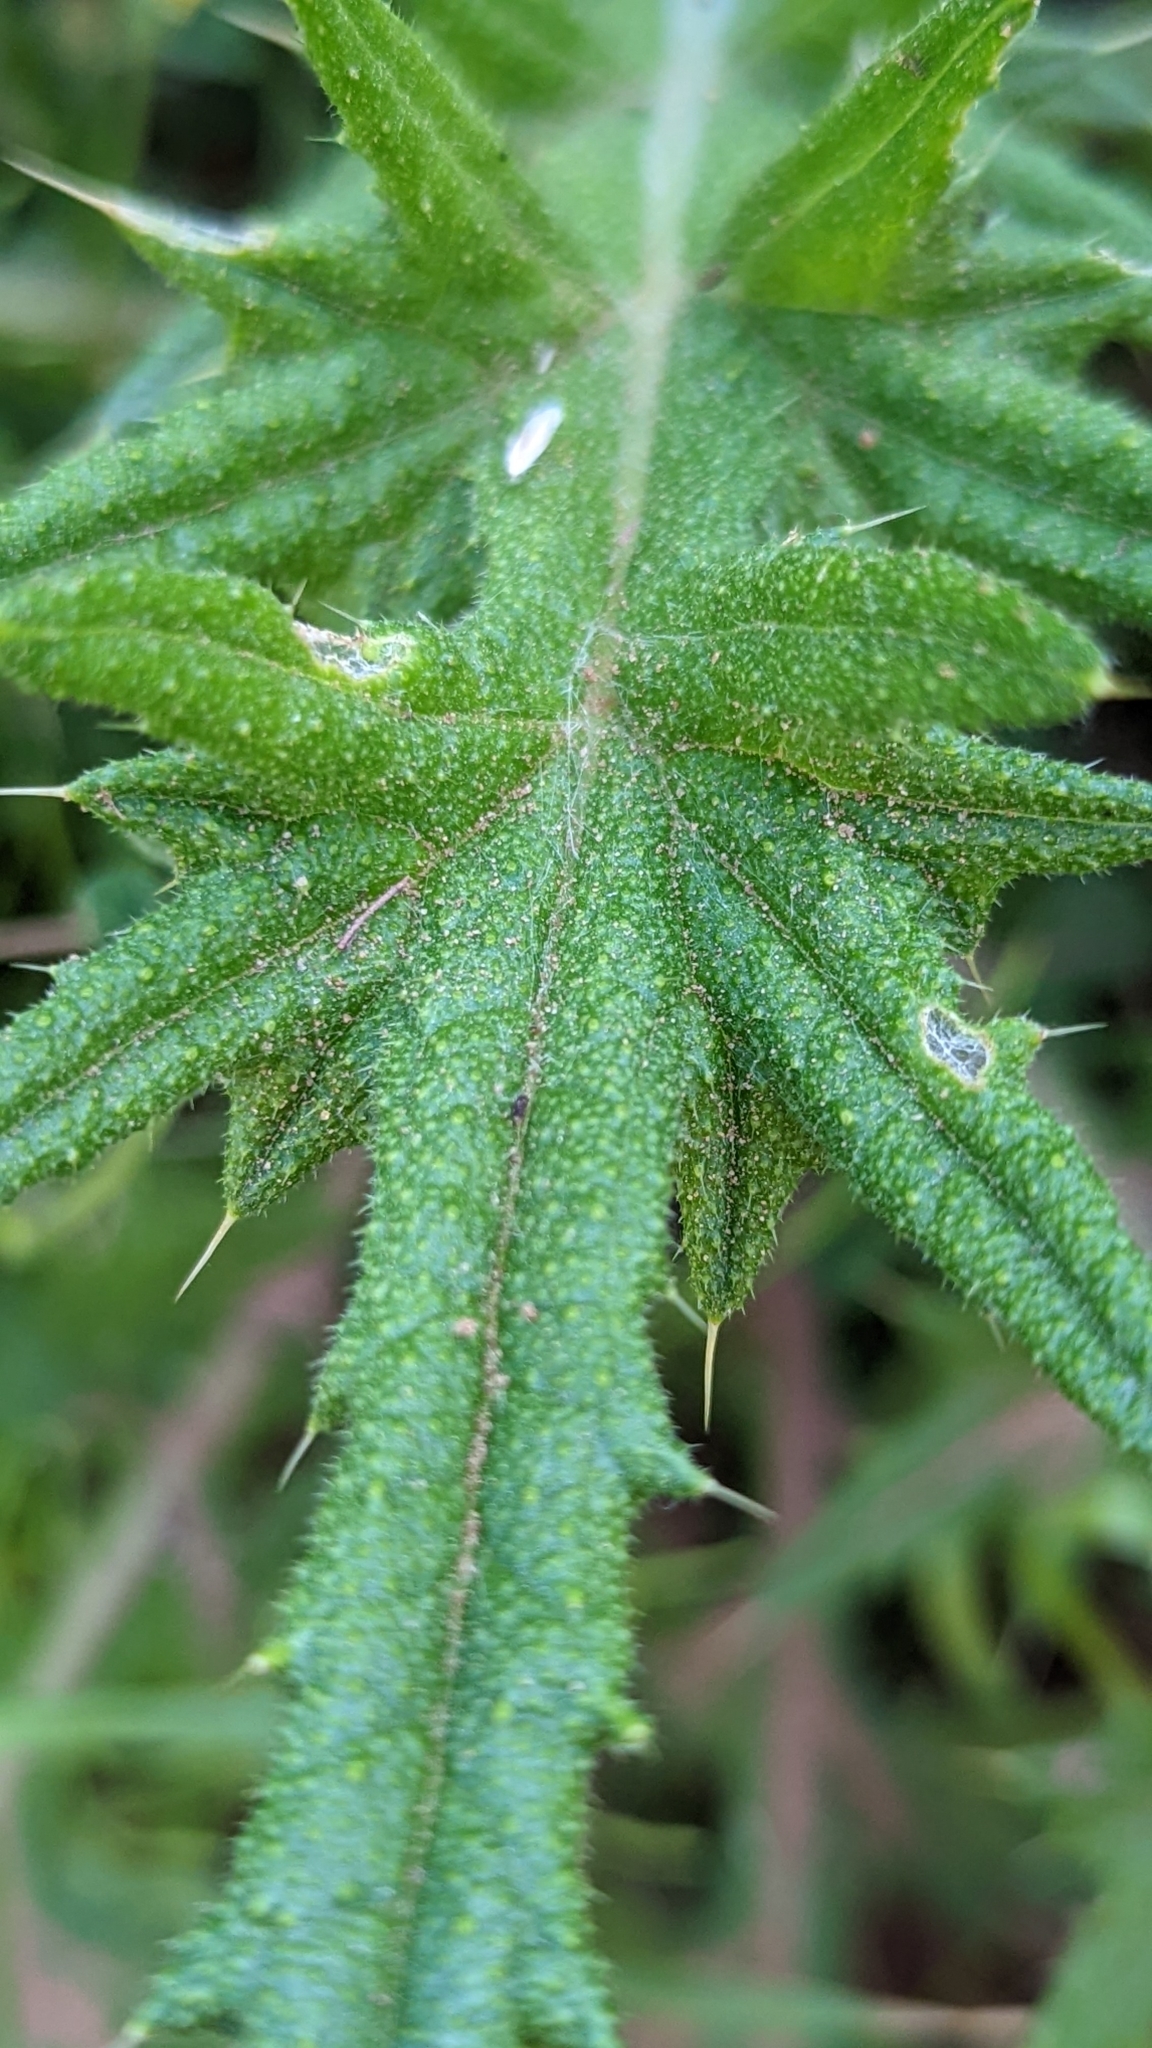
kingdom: Plantae
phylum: Tracheophyta
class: Magnoliopsida
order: Asterales
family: Asteraceae
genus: Cirsium
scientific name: Cirsium vulgare
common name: Bull thistle
